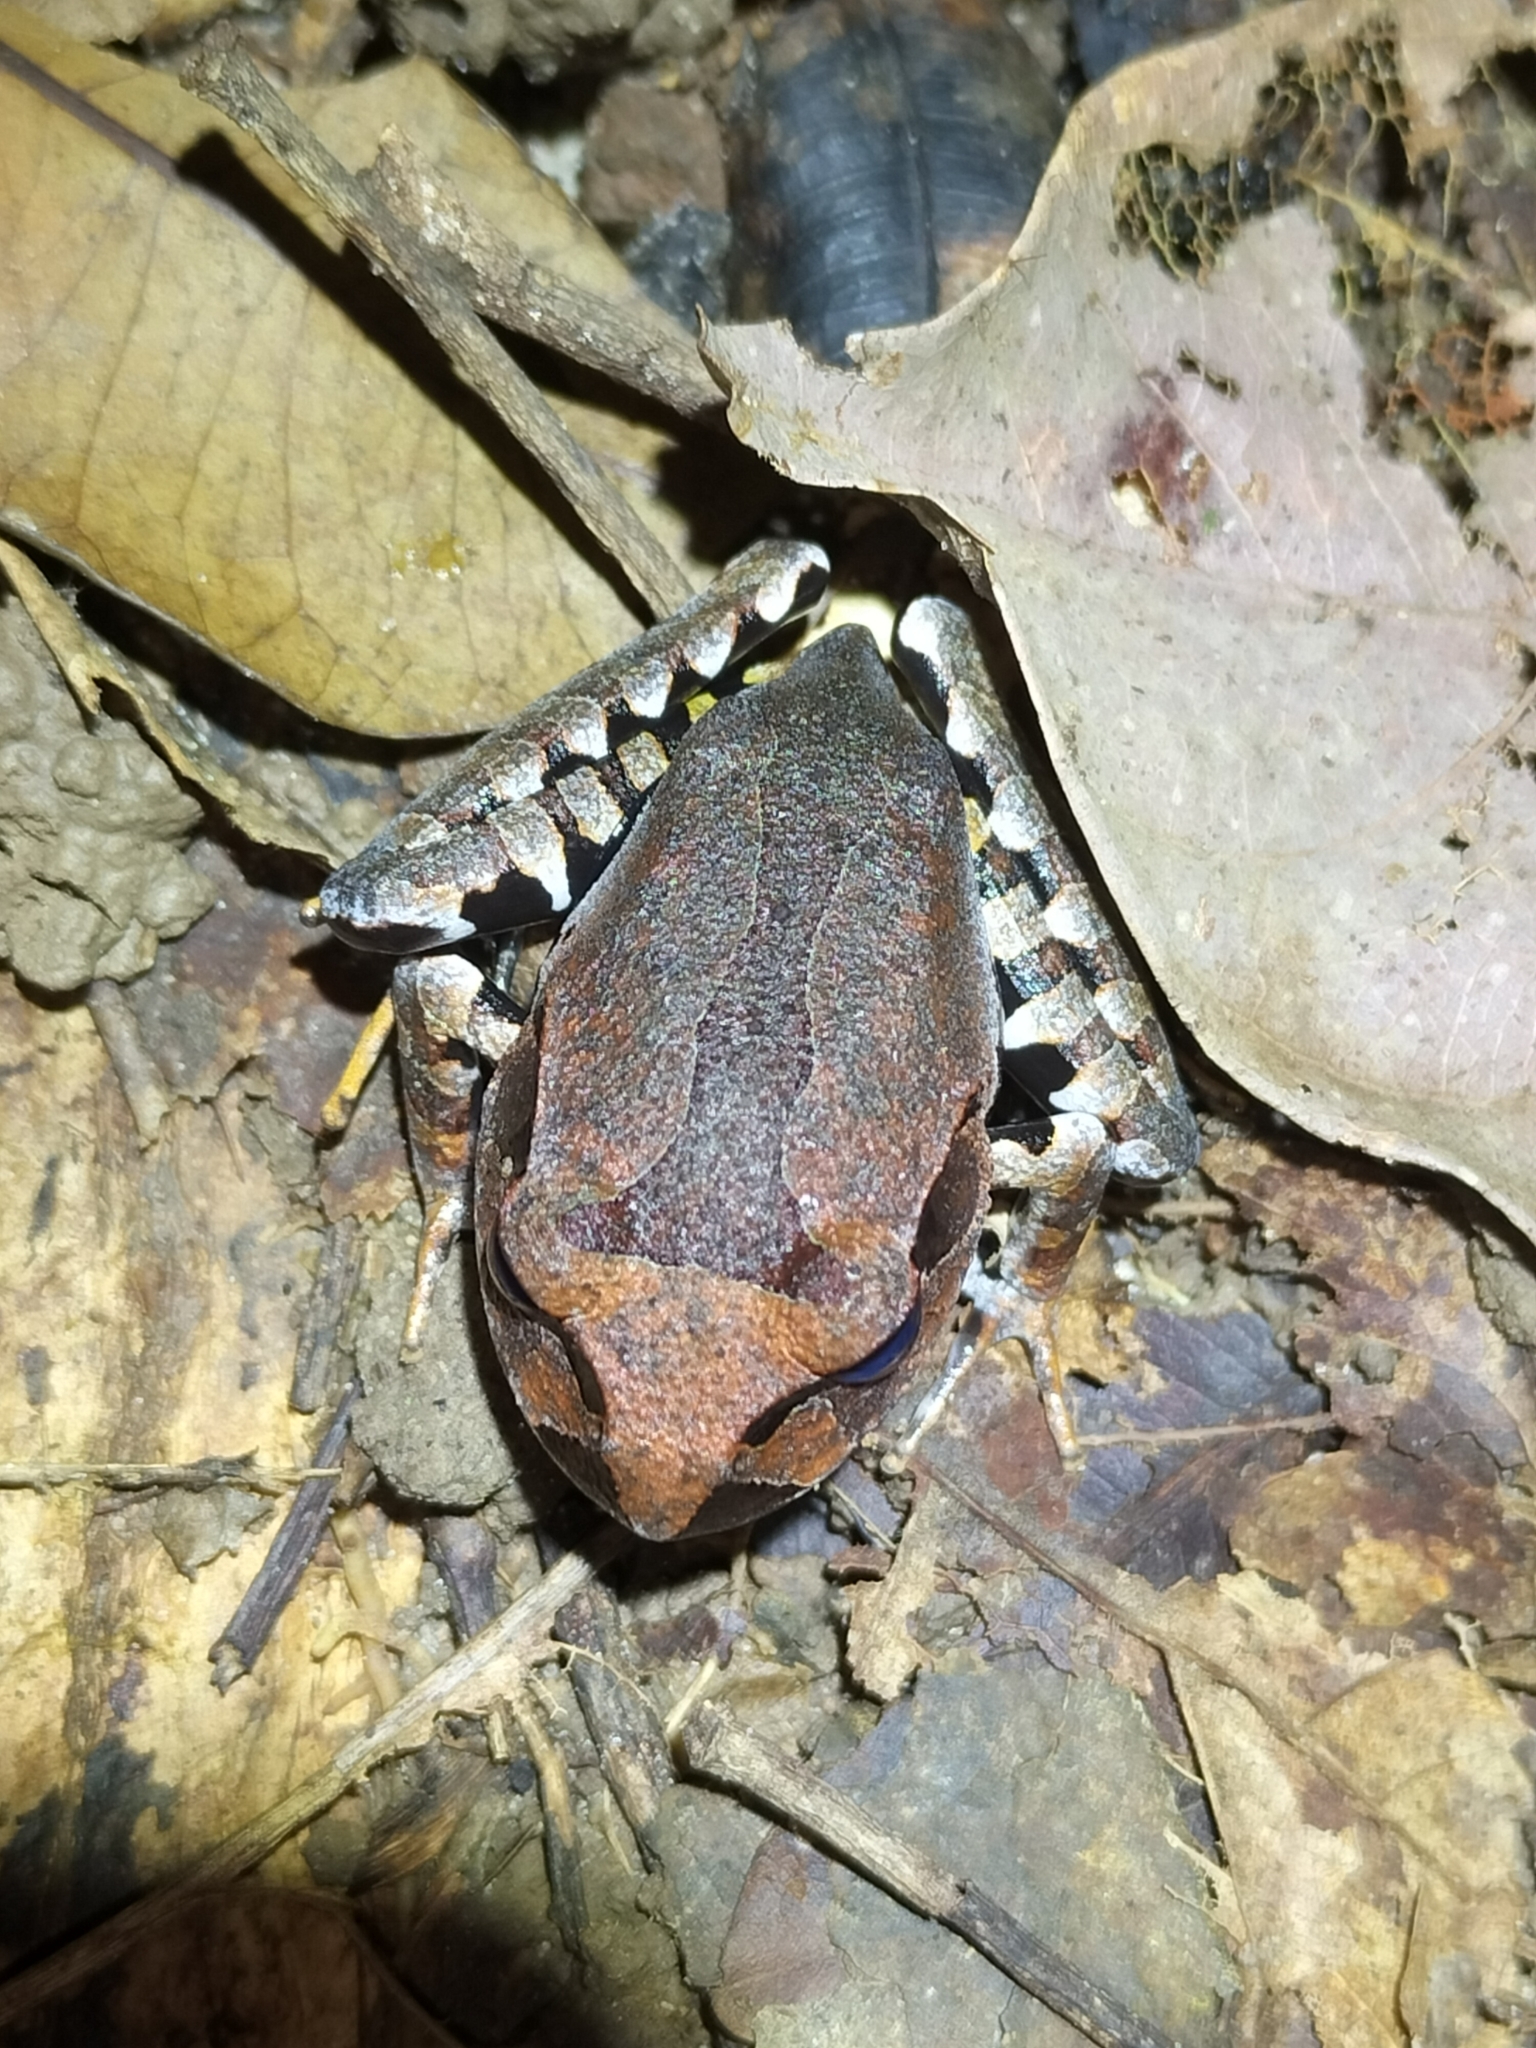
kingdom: Animalia
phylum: Chordata
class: Amphibia
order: Anura
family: Myobatrachidae
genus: Mixophyes
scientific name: Mixophyes schevilli
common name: Northern barred frog
